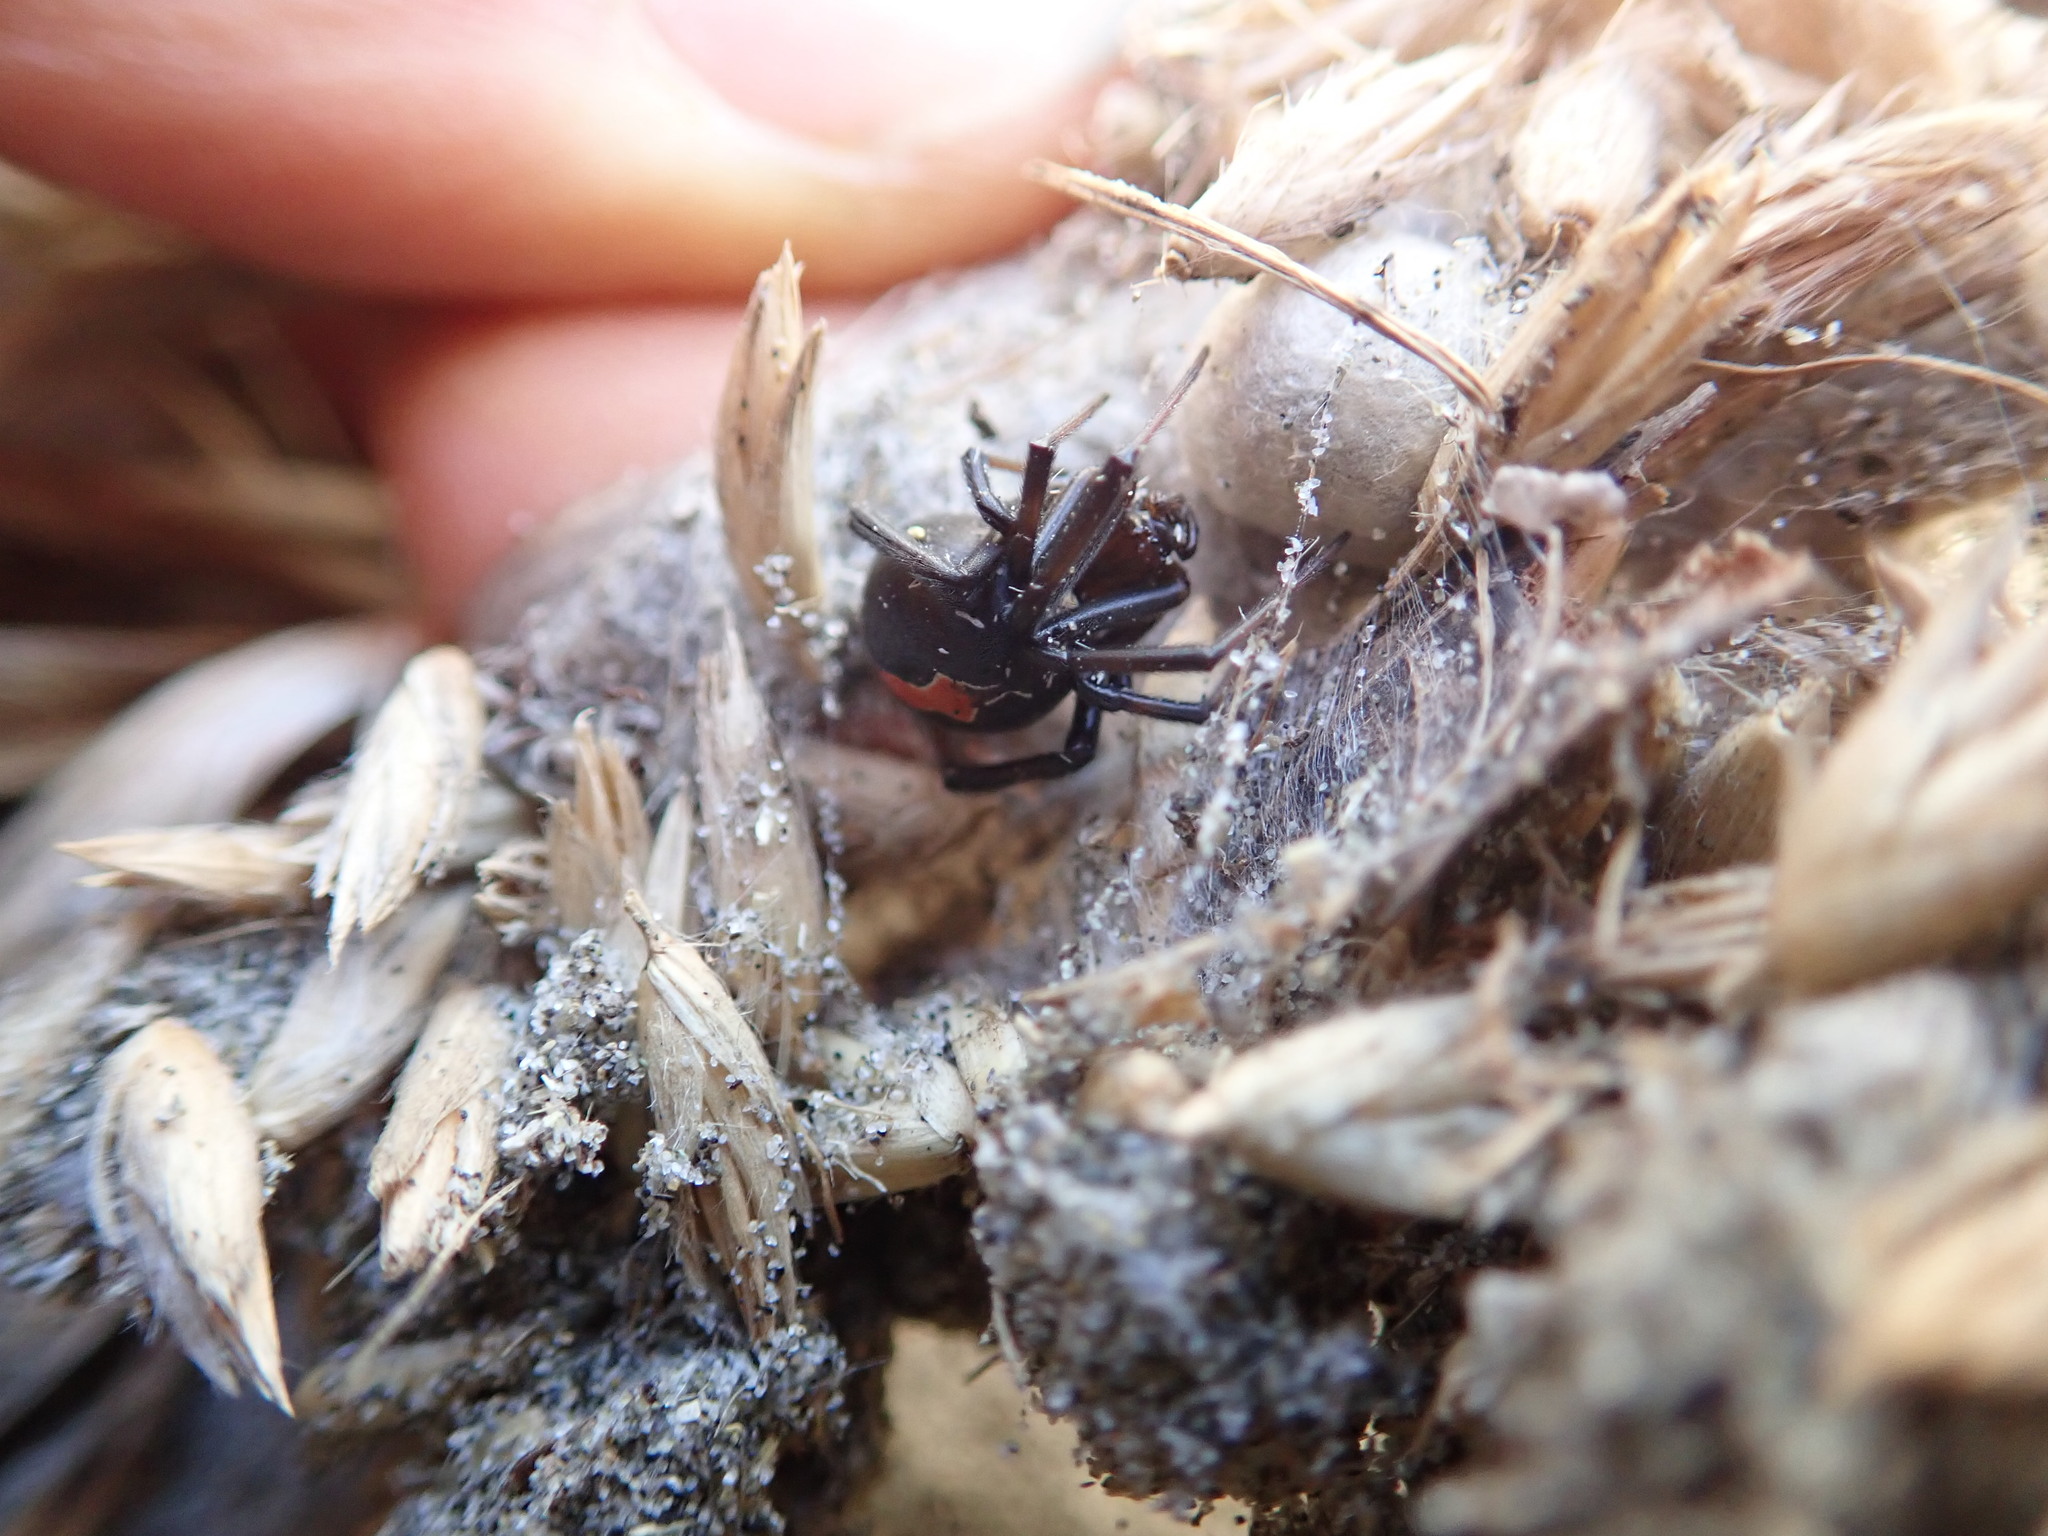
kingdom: Animalia
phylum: Arthropoda
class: Arachnida
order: Araneae
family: Theridiidae
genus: Latrodectus
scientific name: Latrodectus katipo
